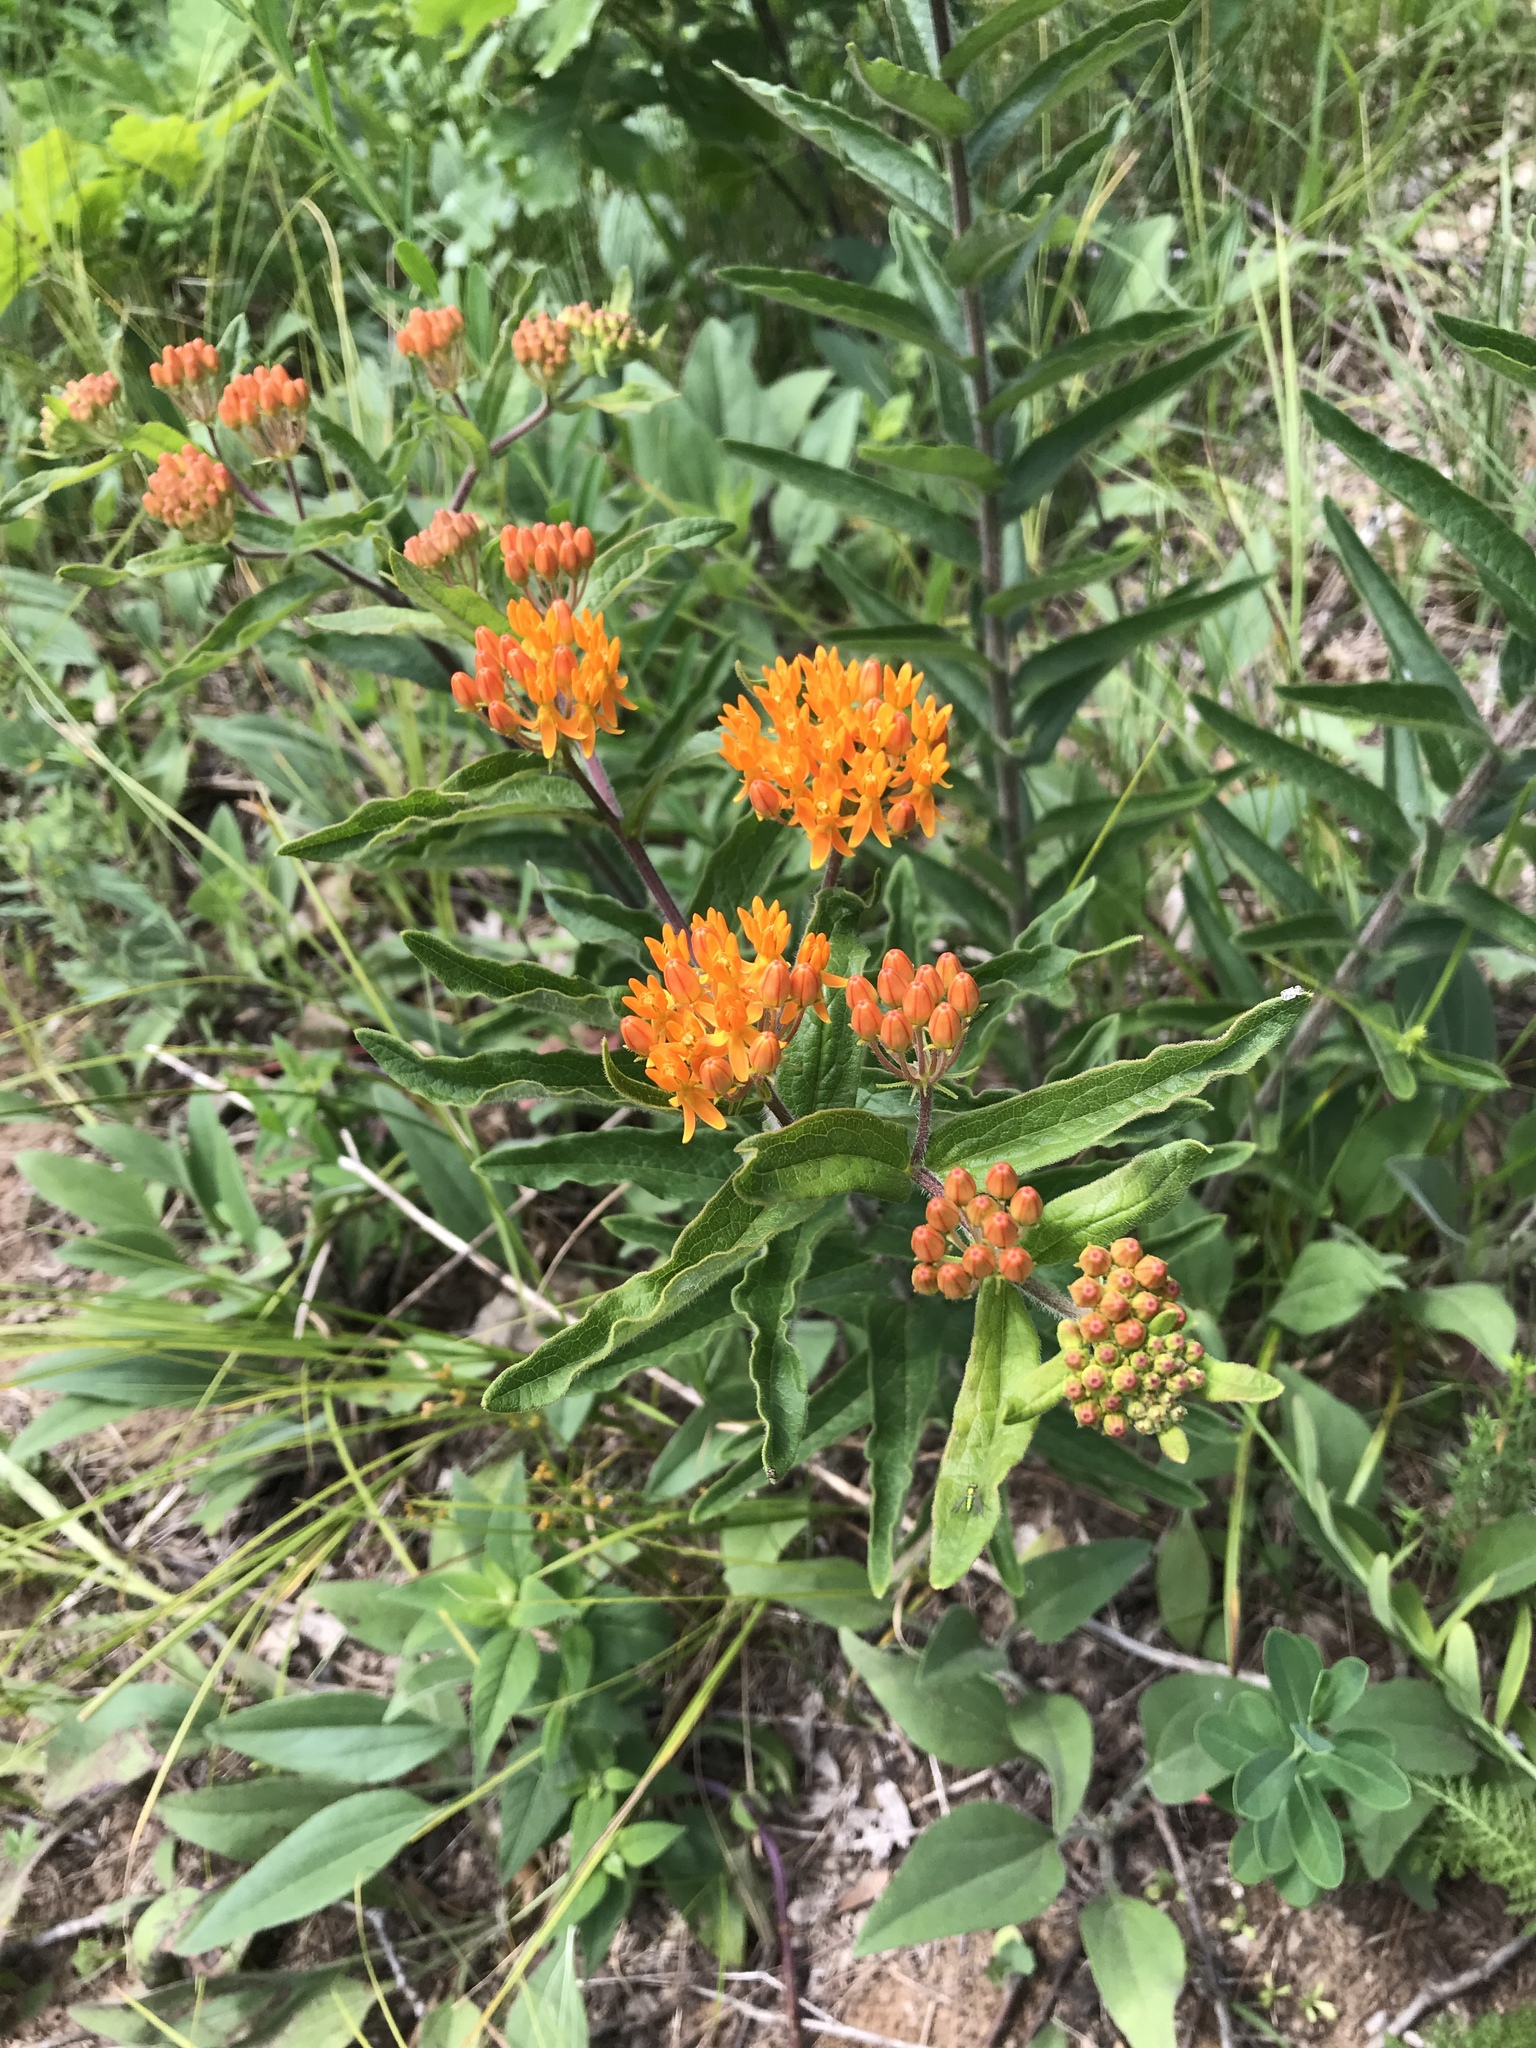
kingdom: Plantae
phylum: Tracheophyta
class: Magnoliopsida
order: Gentianales
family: Apocynaceae
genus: Asclepias
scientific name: Asclepias tuberosa
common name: Butterfly milkweed
